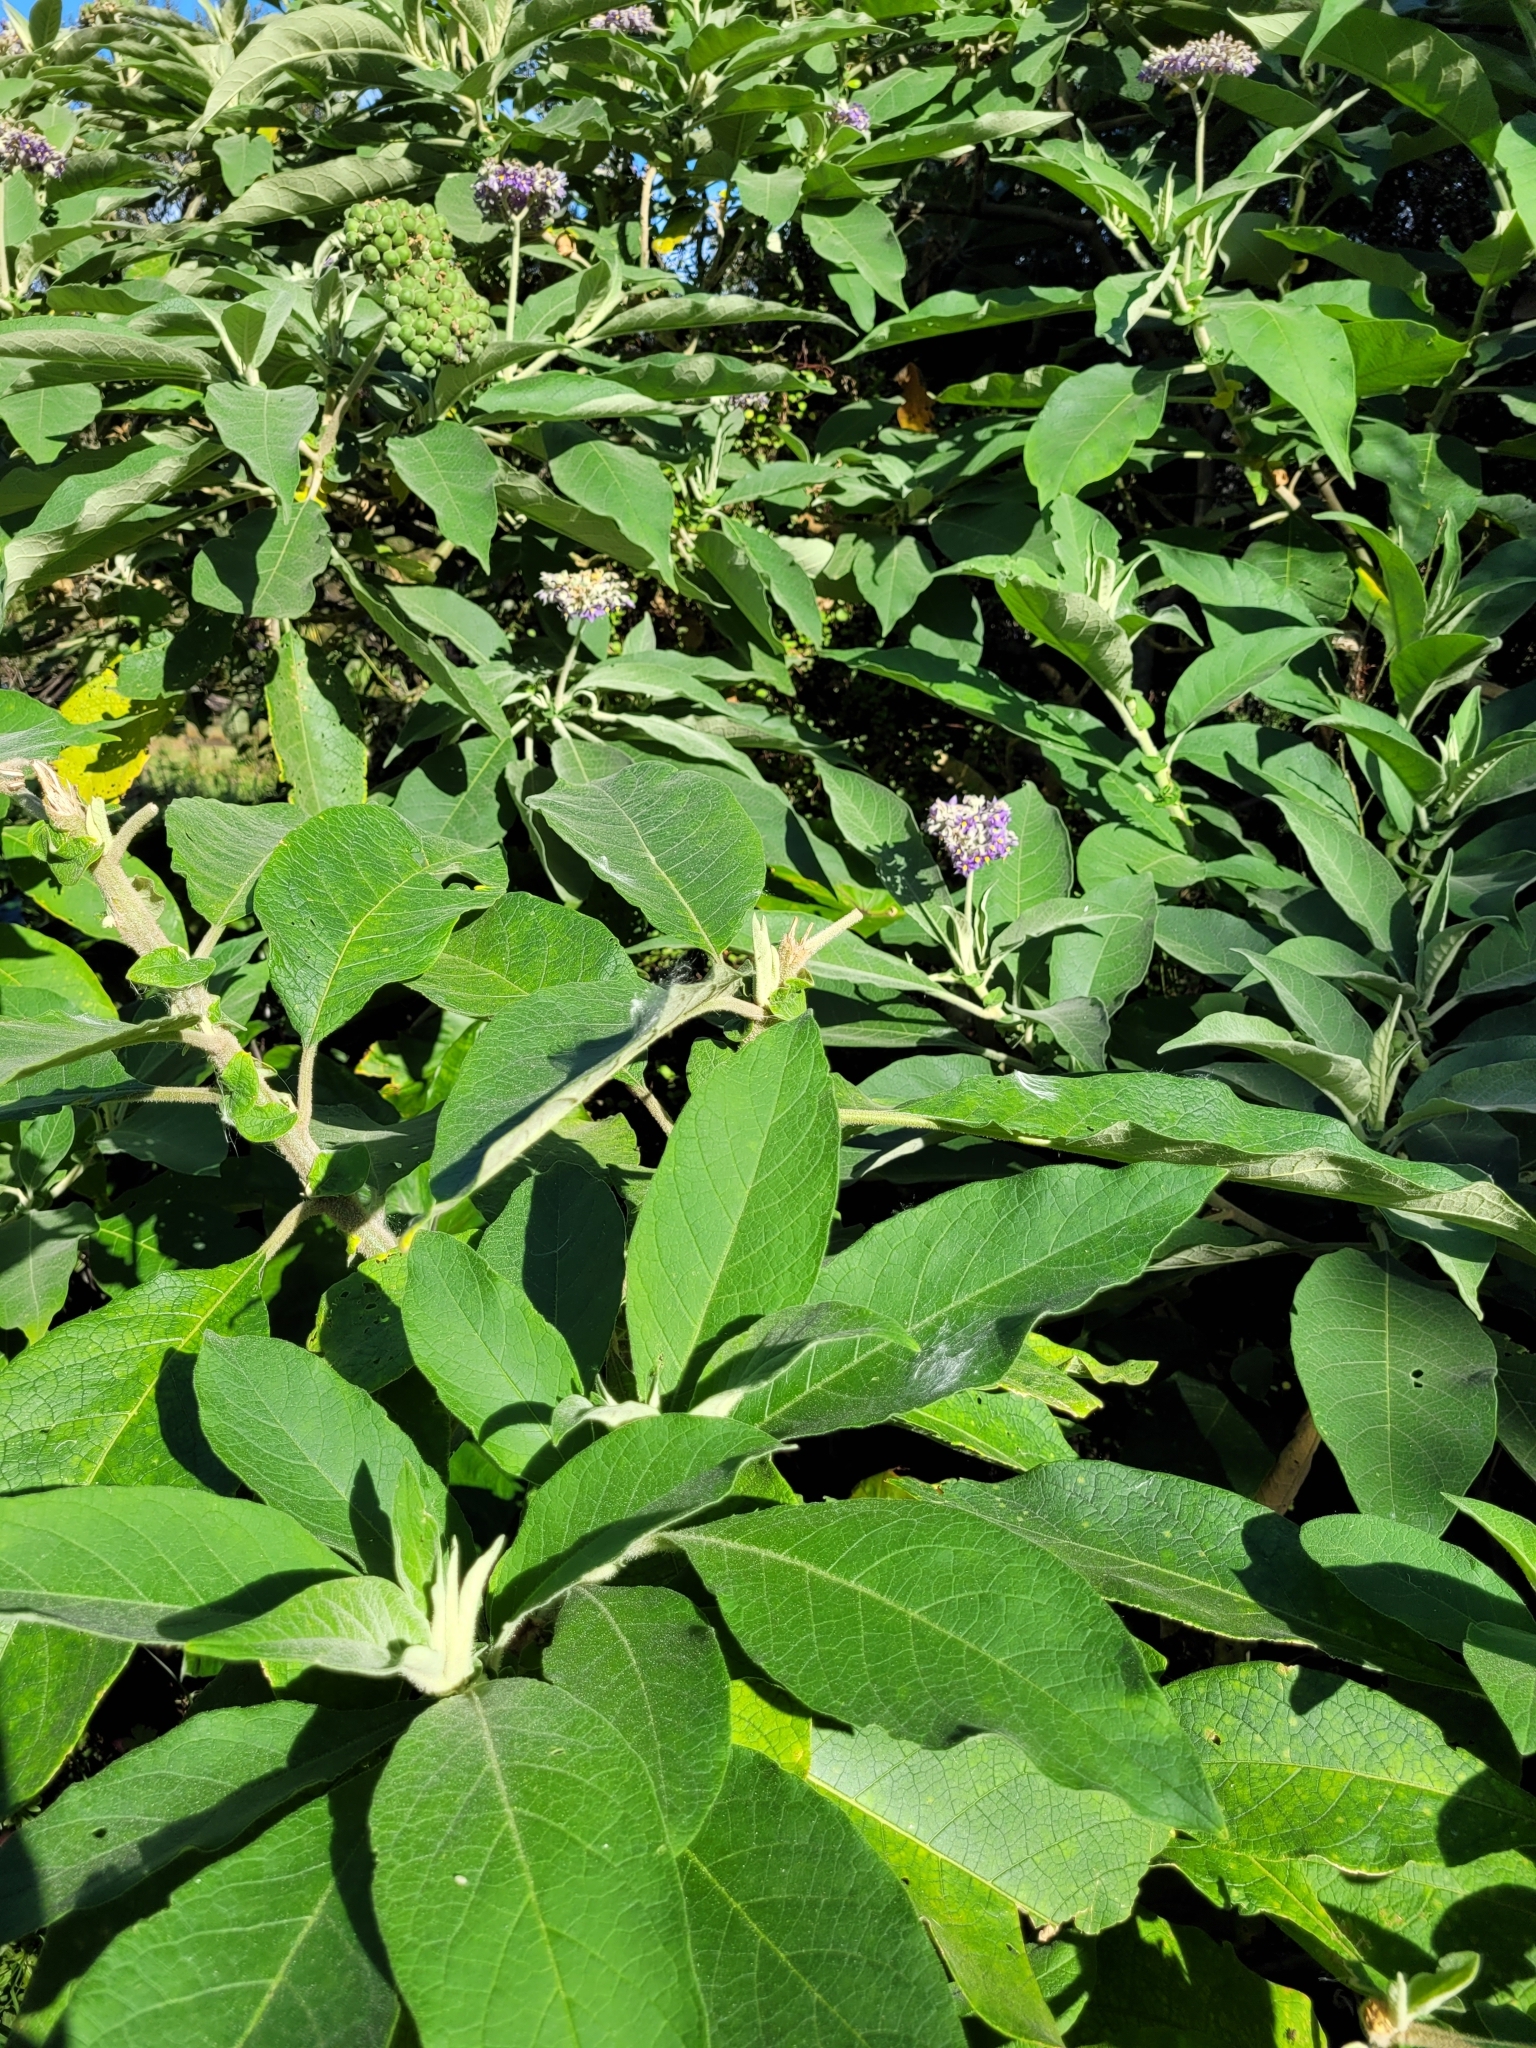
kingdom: Plantae
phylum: Tracheophyta
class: Magnoliopsida
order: Solanales
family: Solanaceae
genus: Solanum
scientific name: Solanum mauritianum
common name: Earleaf nightshade
